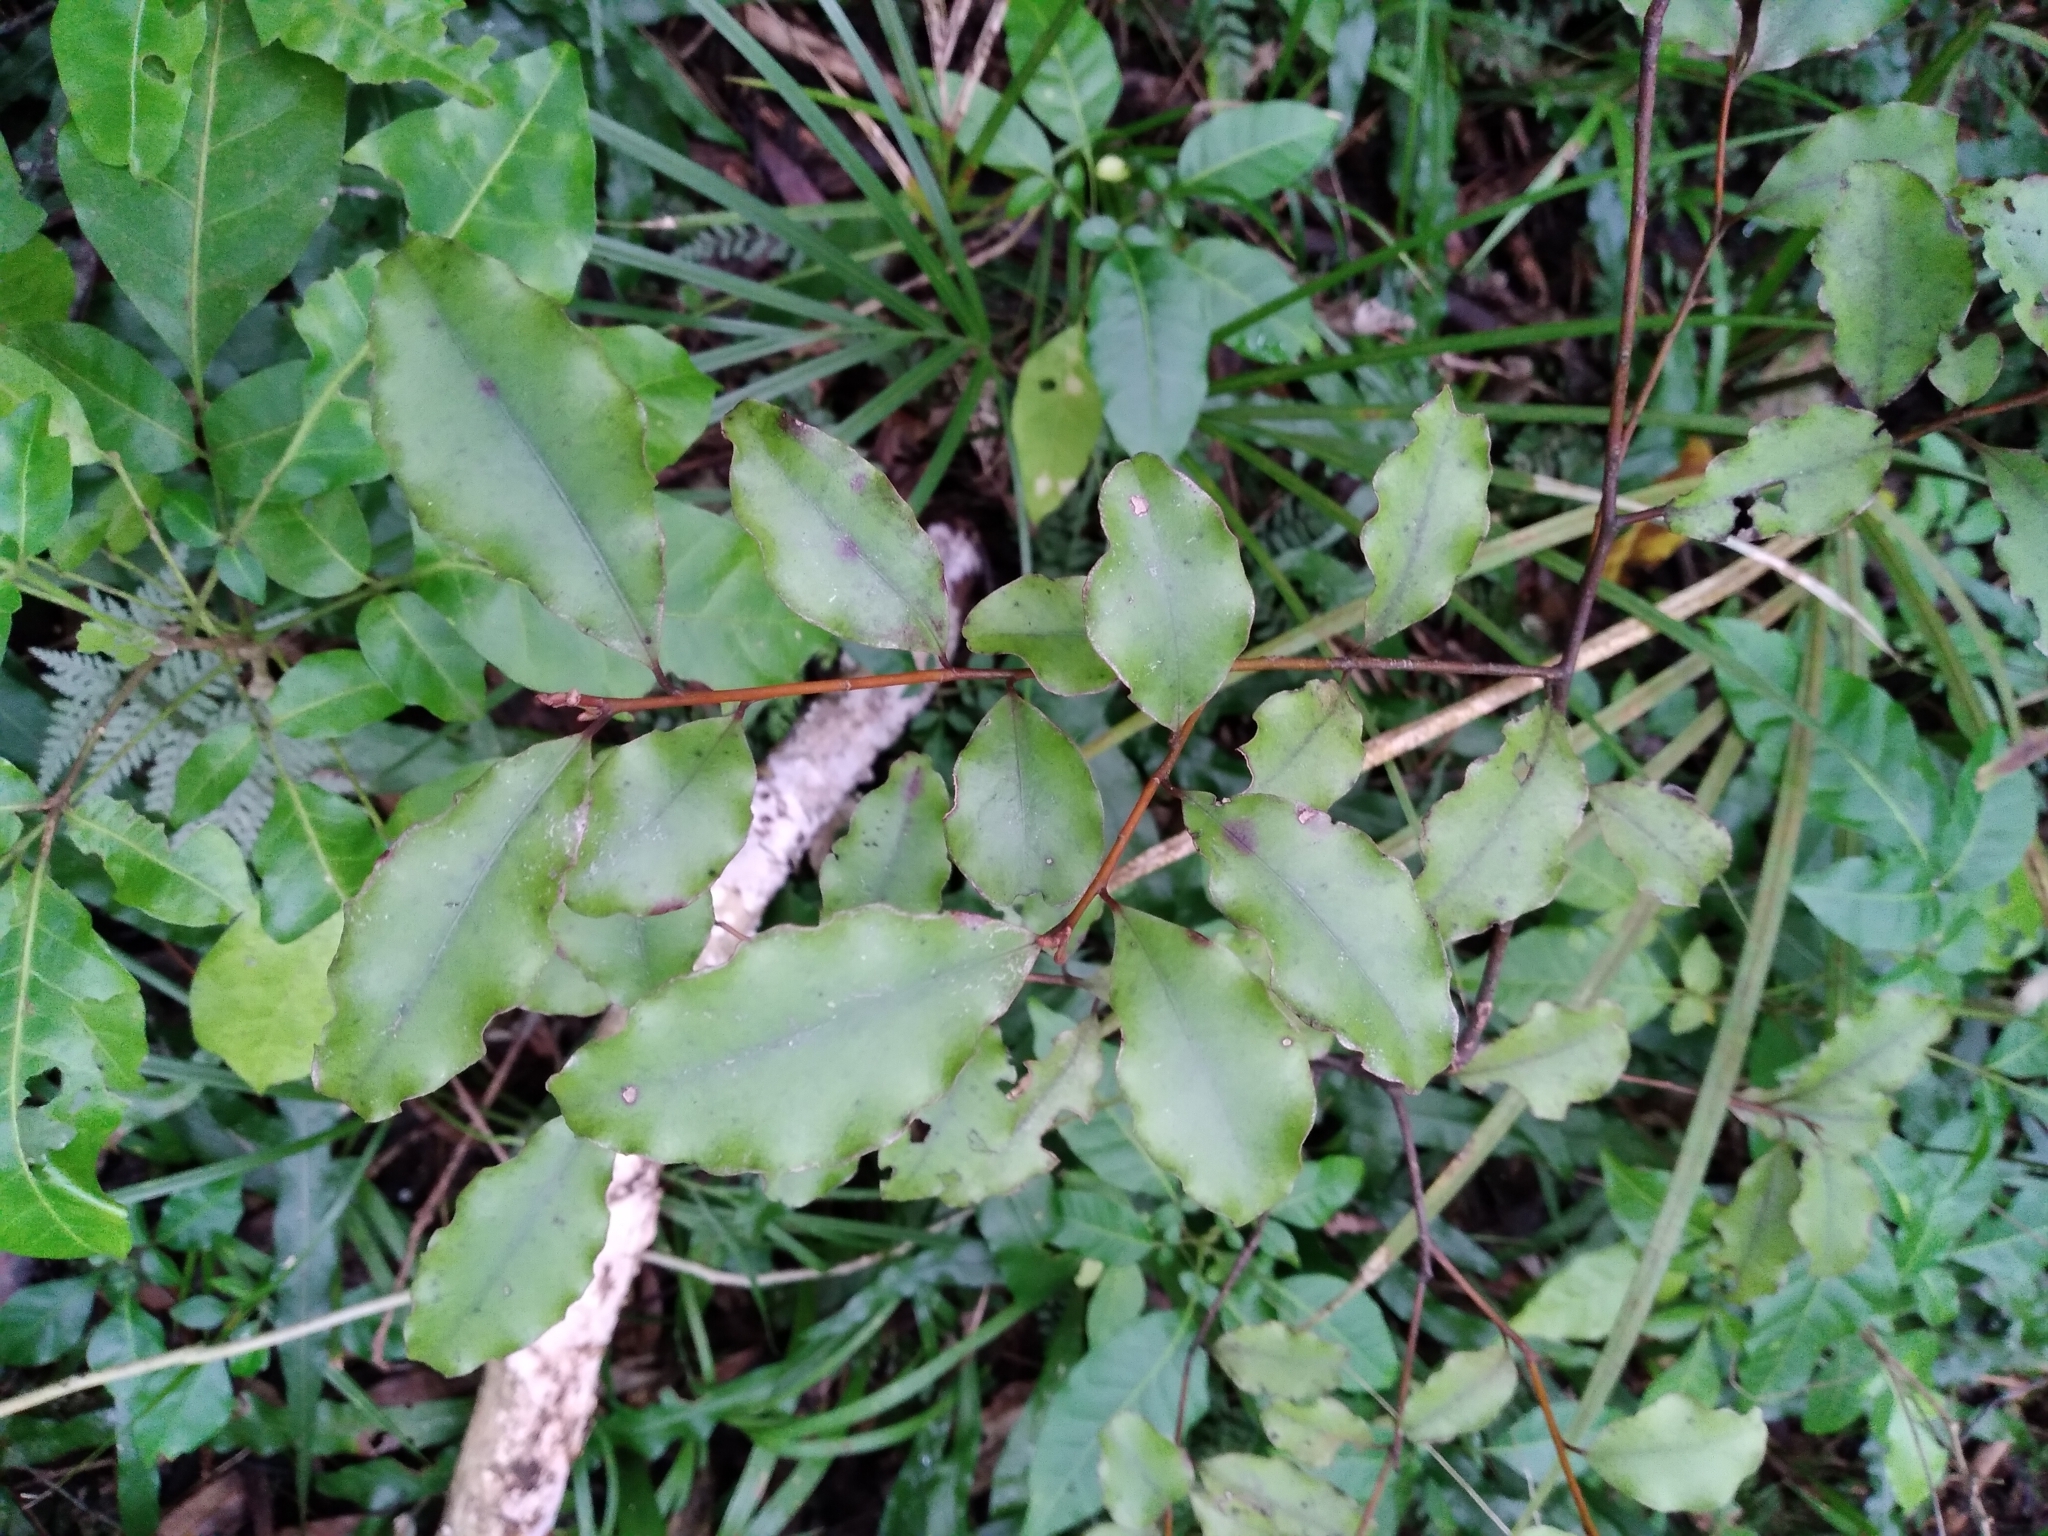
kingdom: Plantae
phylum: Tracheophyta
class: Magnoliopsida
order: Ericales
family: Primulaceae
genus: Myrsine
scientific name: Myrsine australis
